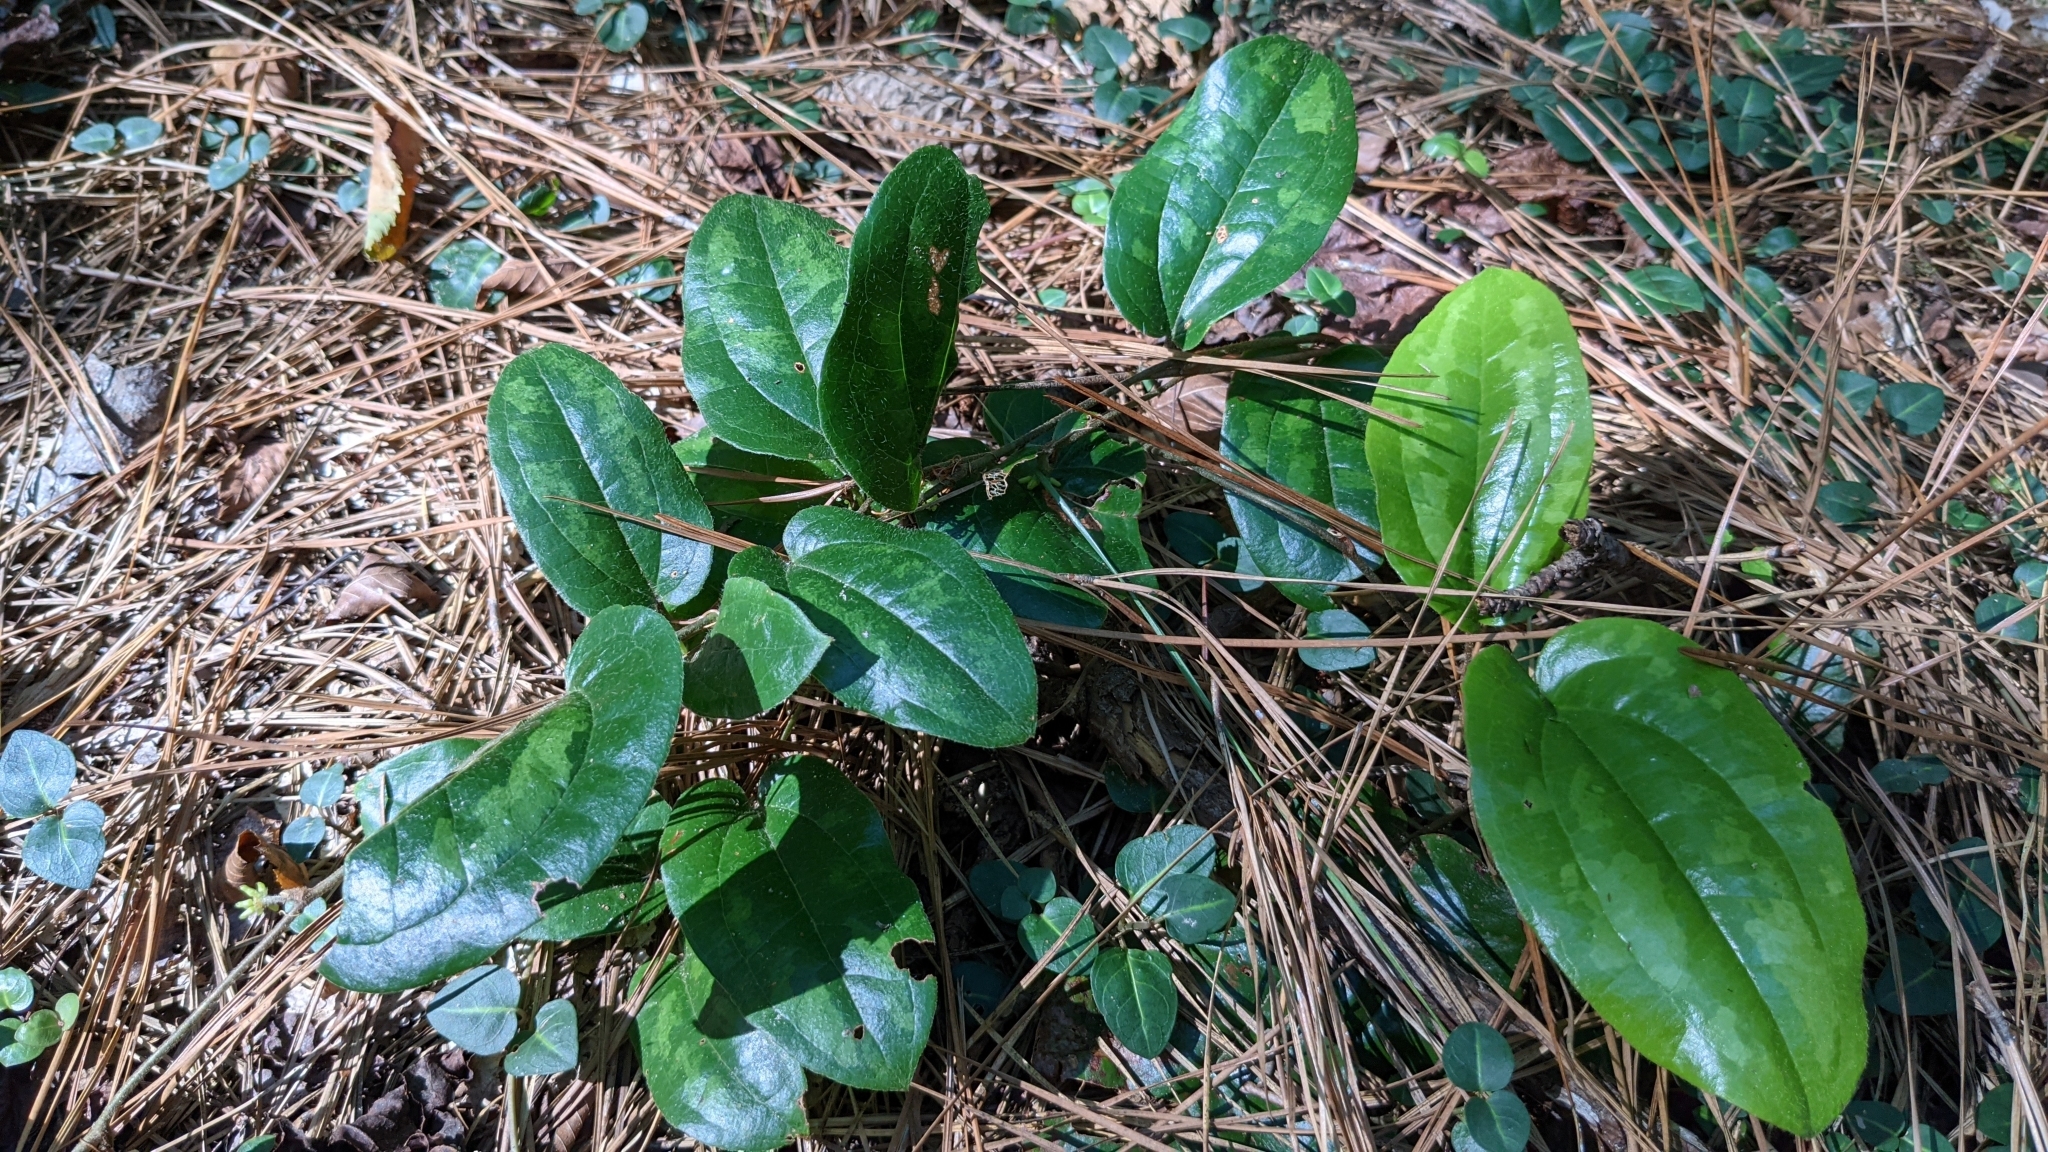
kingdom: Plantae
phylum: Tracheophyta
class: Liliopsida
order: Liliales
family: Smilacaceae
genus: Smilax
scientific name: Smilax pumila
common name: Sarsaparilla-vine
